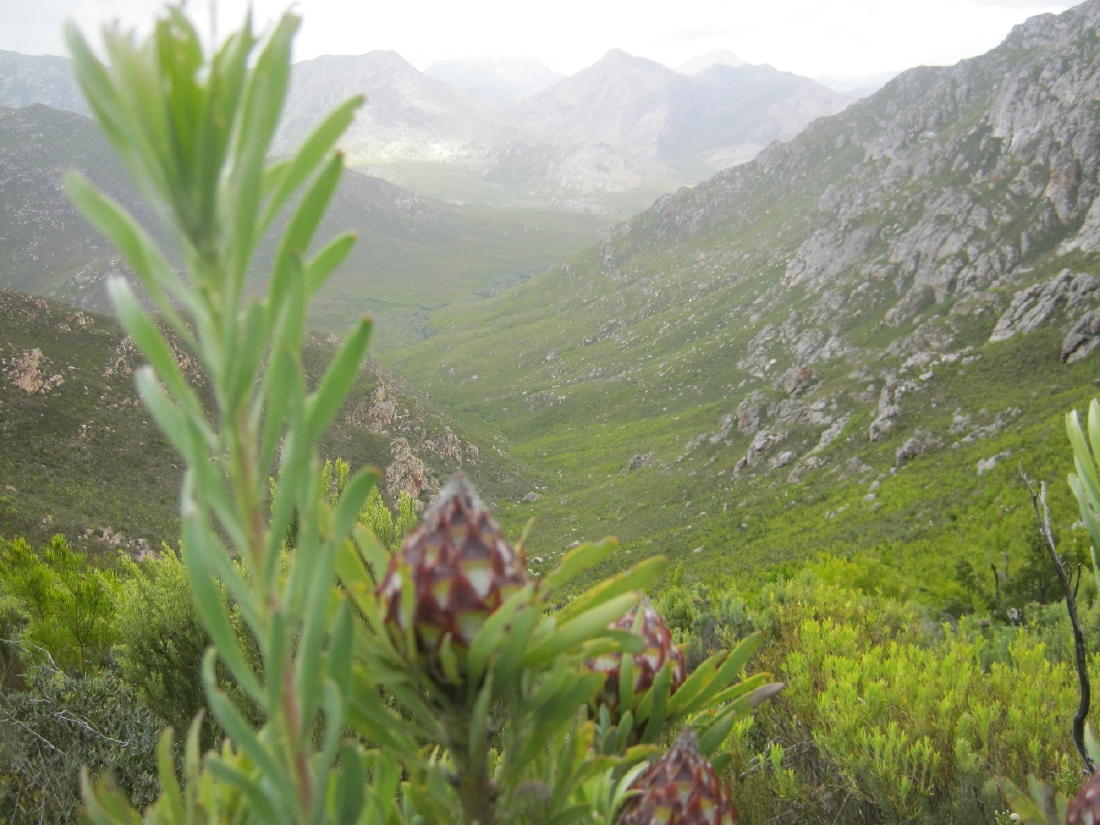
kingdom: Plantae
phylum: Tracheophyta
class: Magnoliopsida
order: Proteales
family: Proteaceae
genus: Leucadendron
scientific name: Leucadendron rubrum
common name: Spinning top
